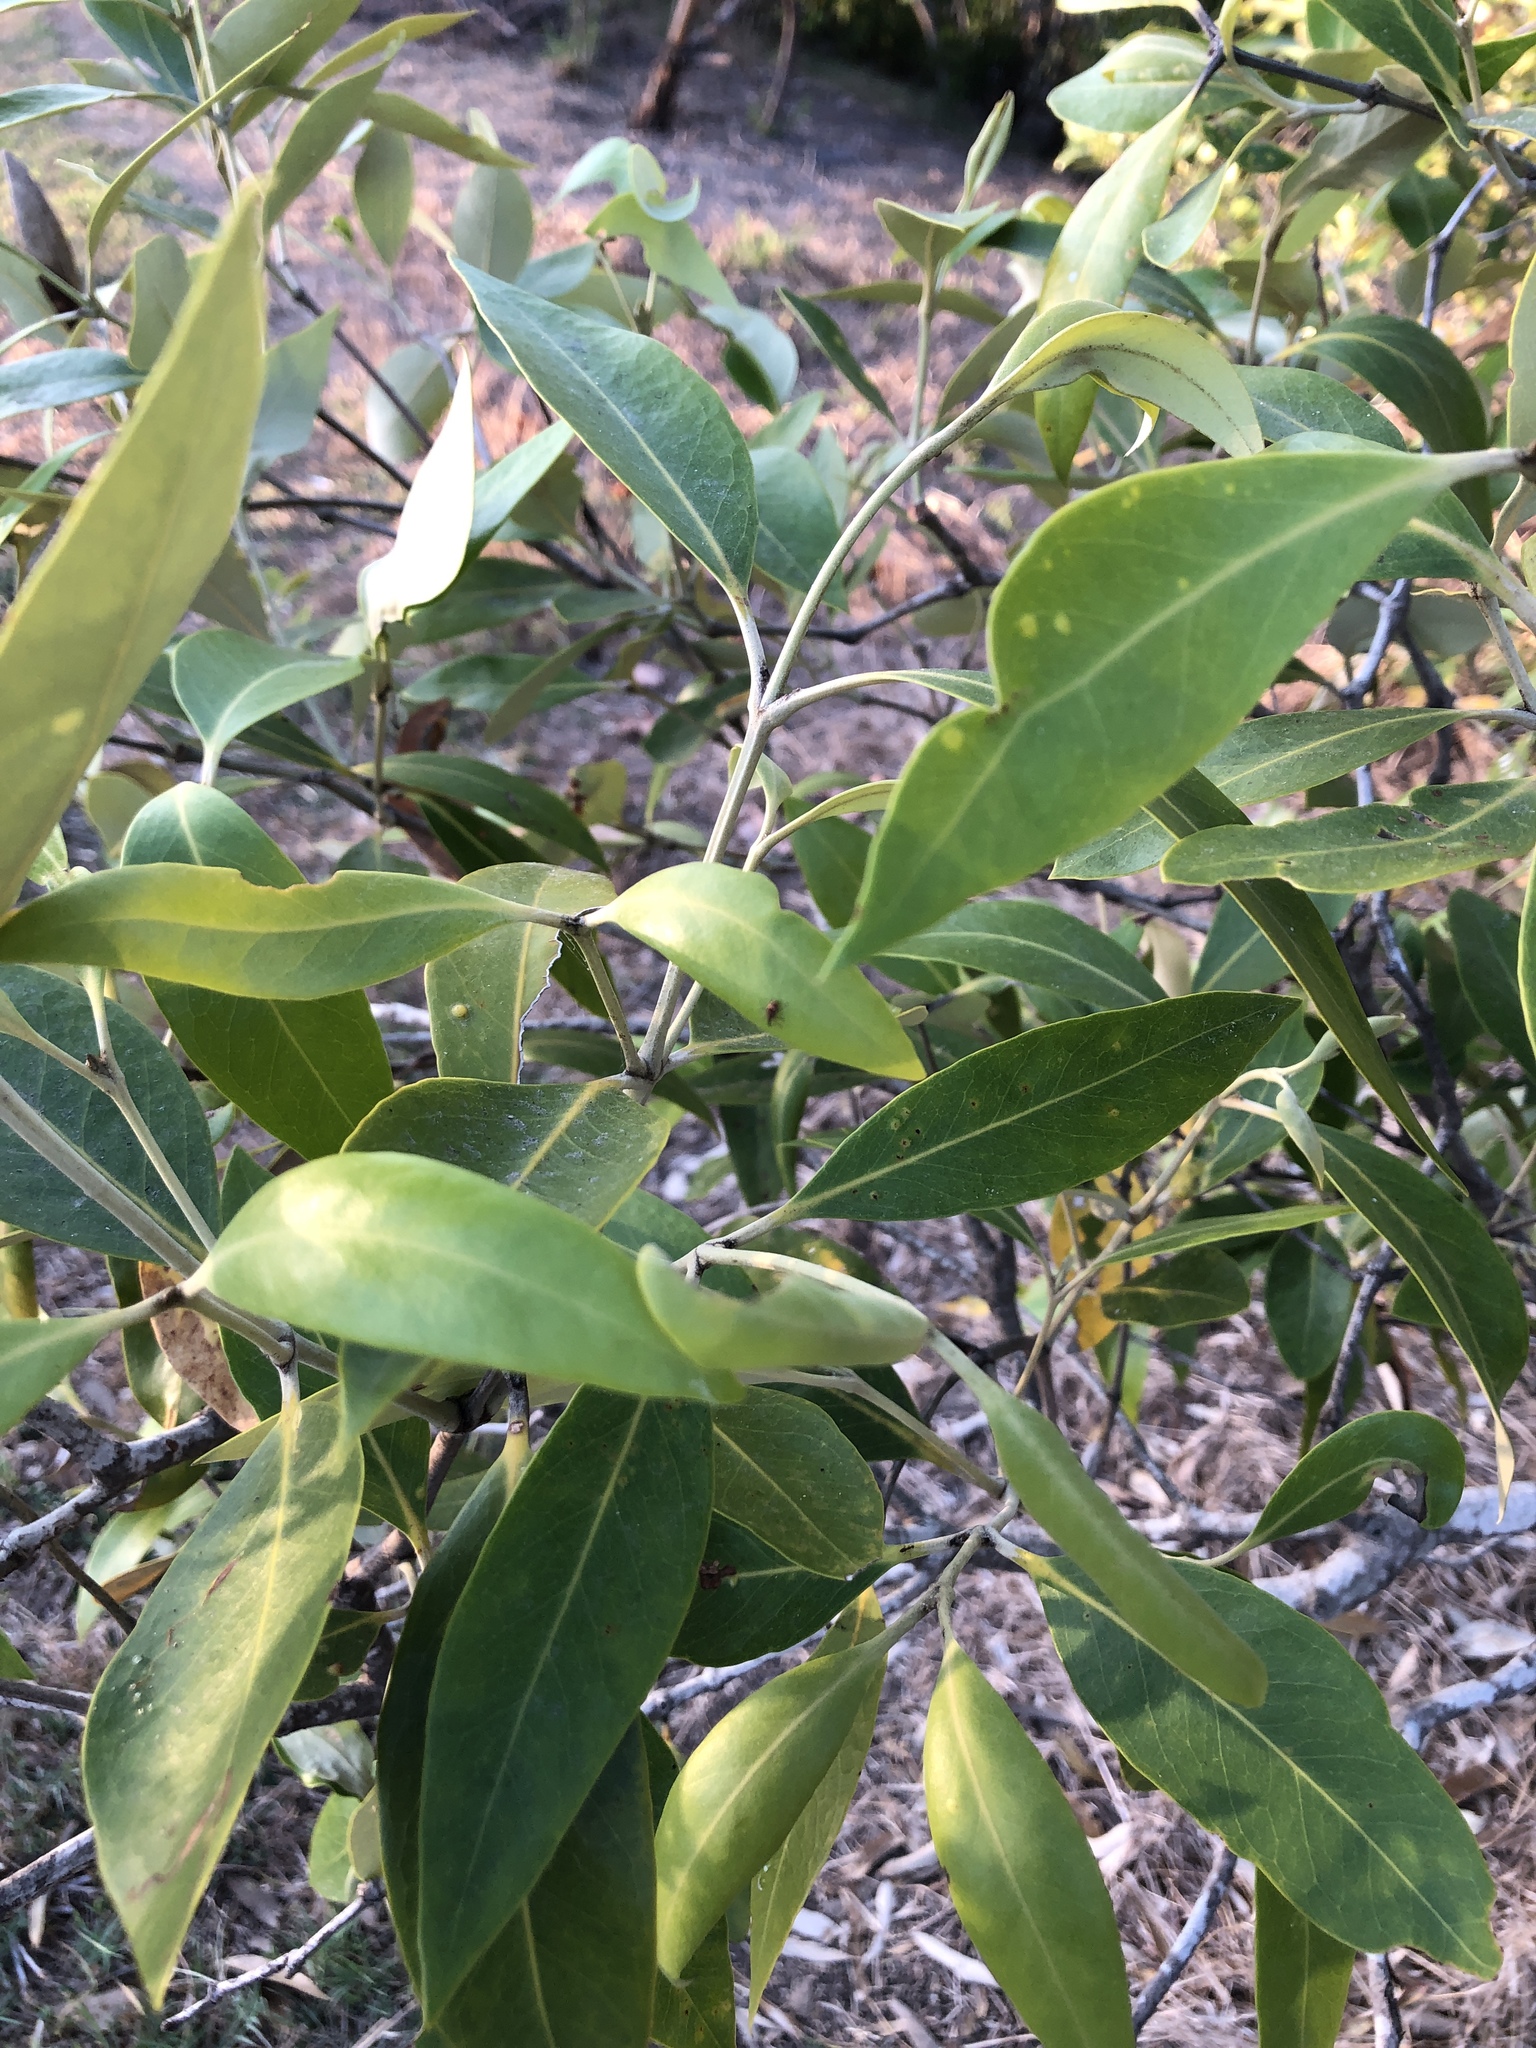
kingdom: Plantae
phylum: Tracheophyta
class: Magnoliopsida
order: Lamiales
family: Acanthaceae
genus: Avicennia
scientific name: Avicennia marina
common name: Gray mangrove
